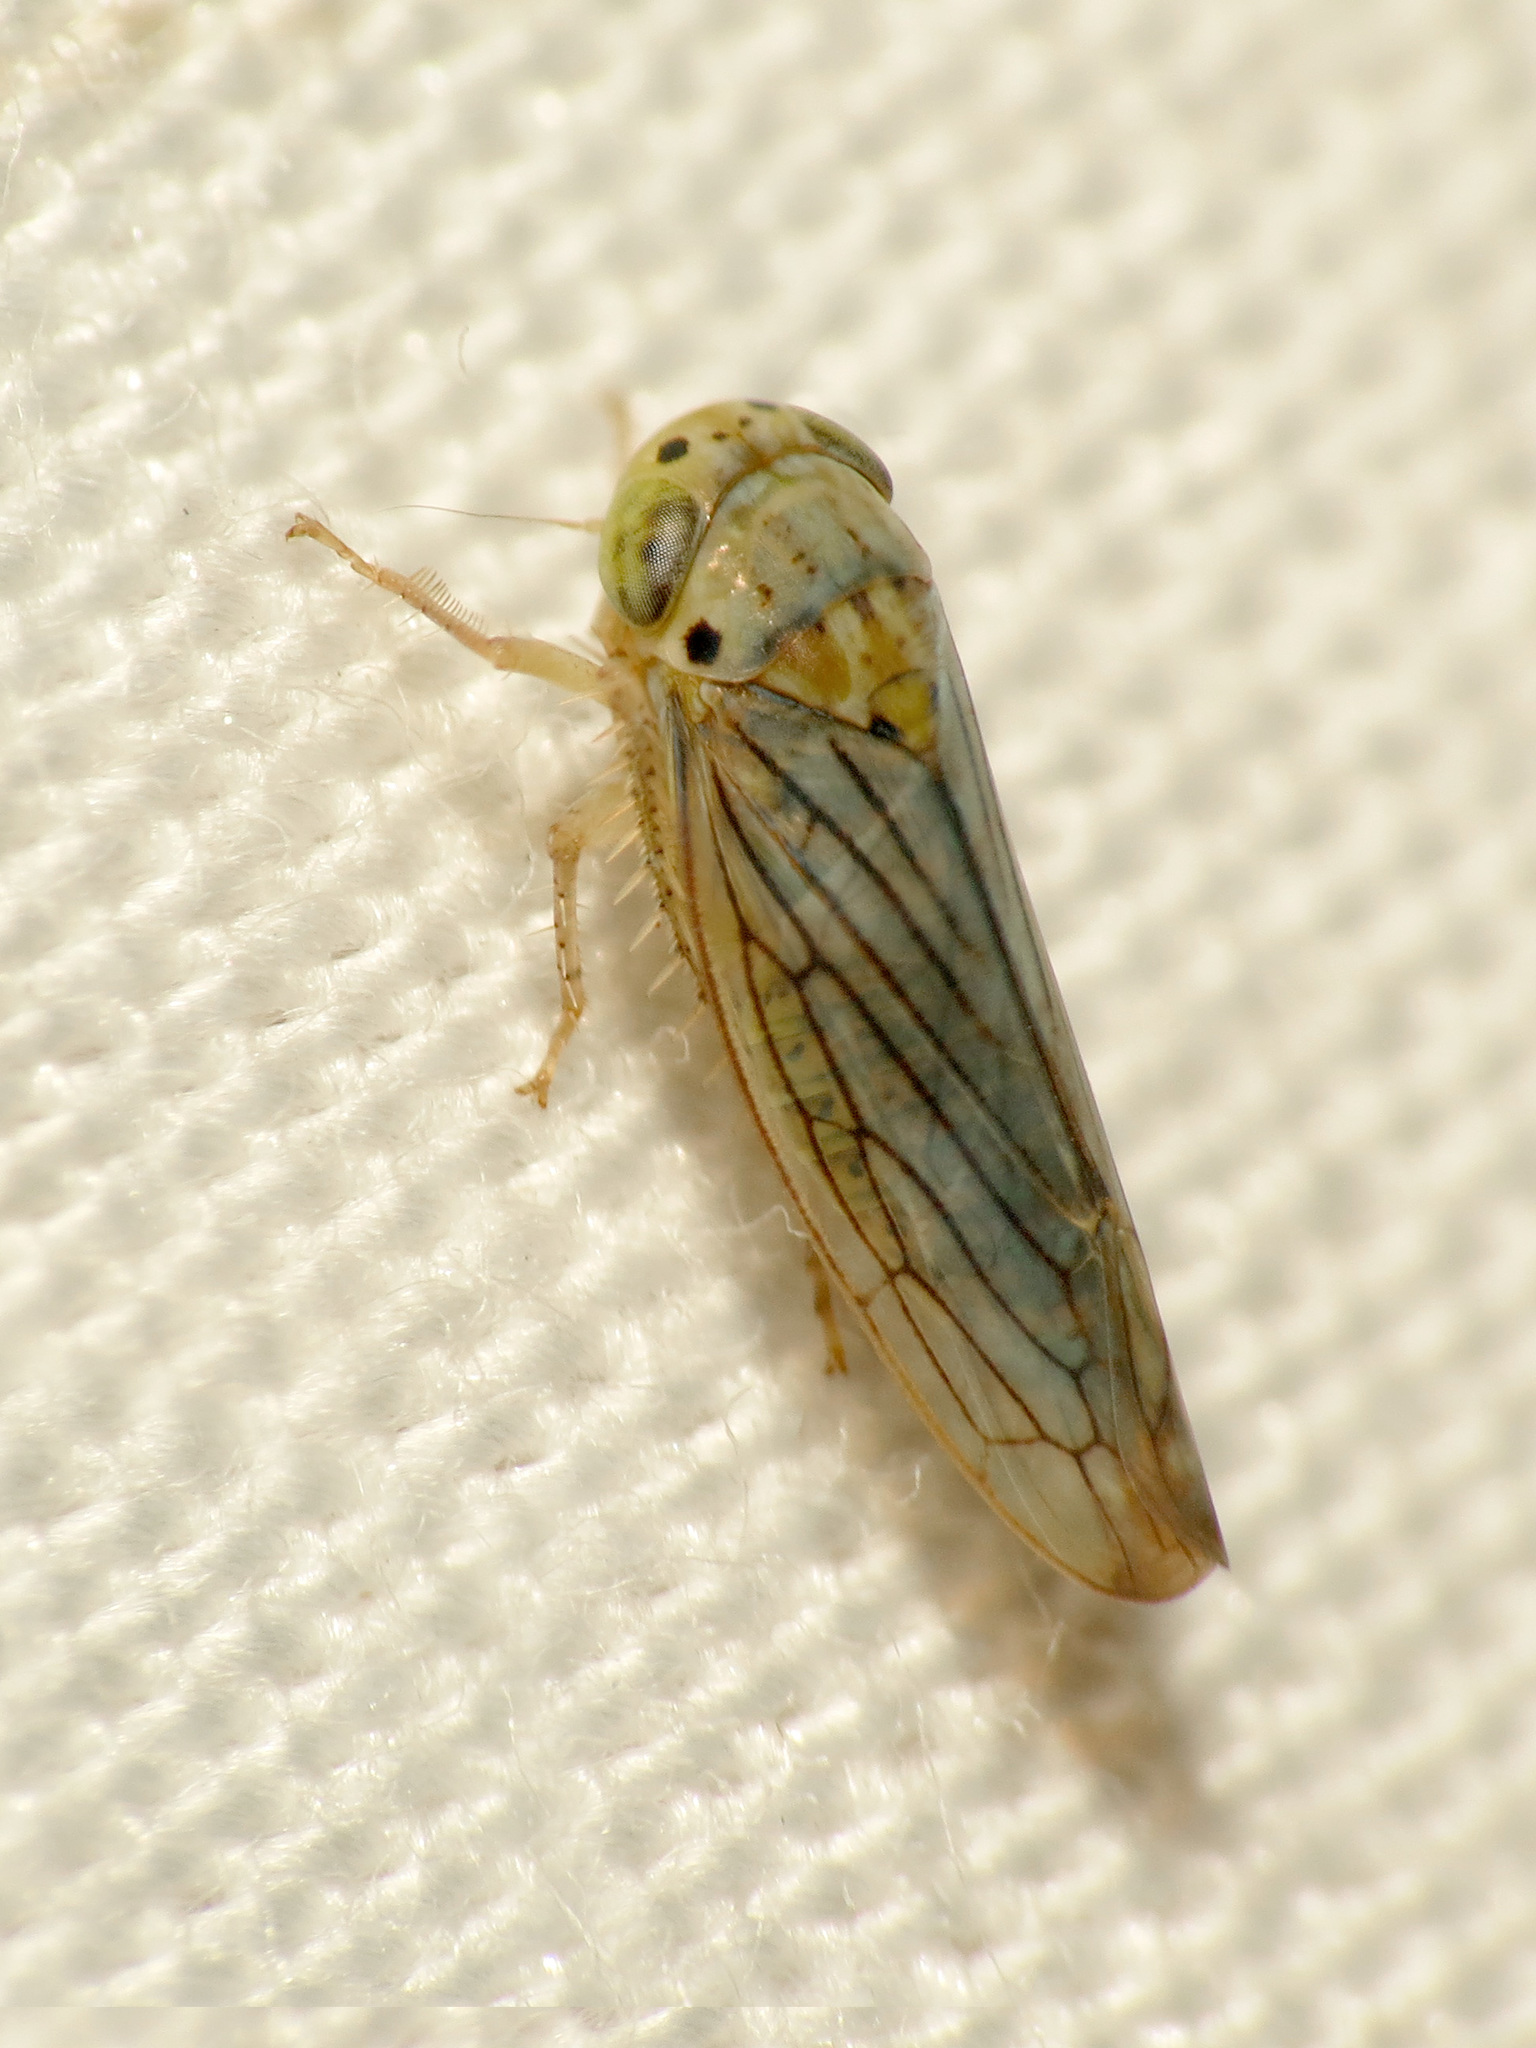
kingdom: Animalia
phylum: Arthropoda
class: Insecta
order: Hemiptera
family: Cicadellidae
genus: Ollarianus
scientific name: Ollarianus armus
